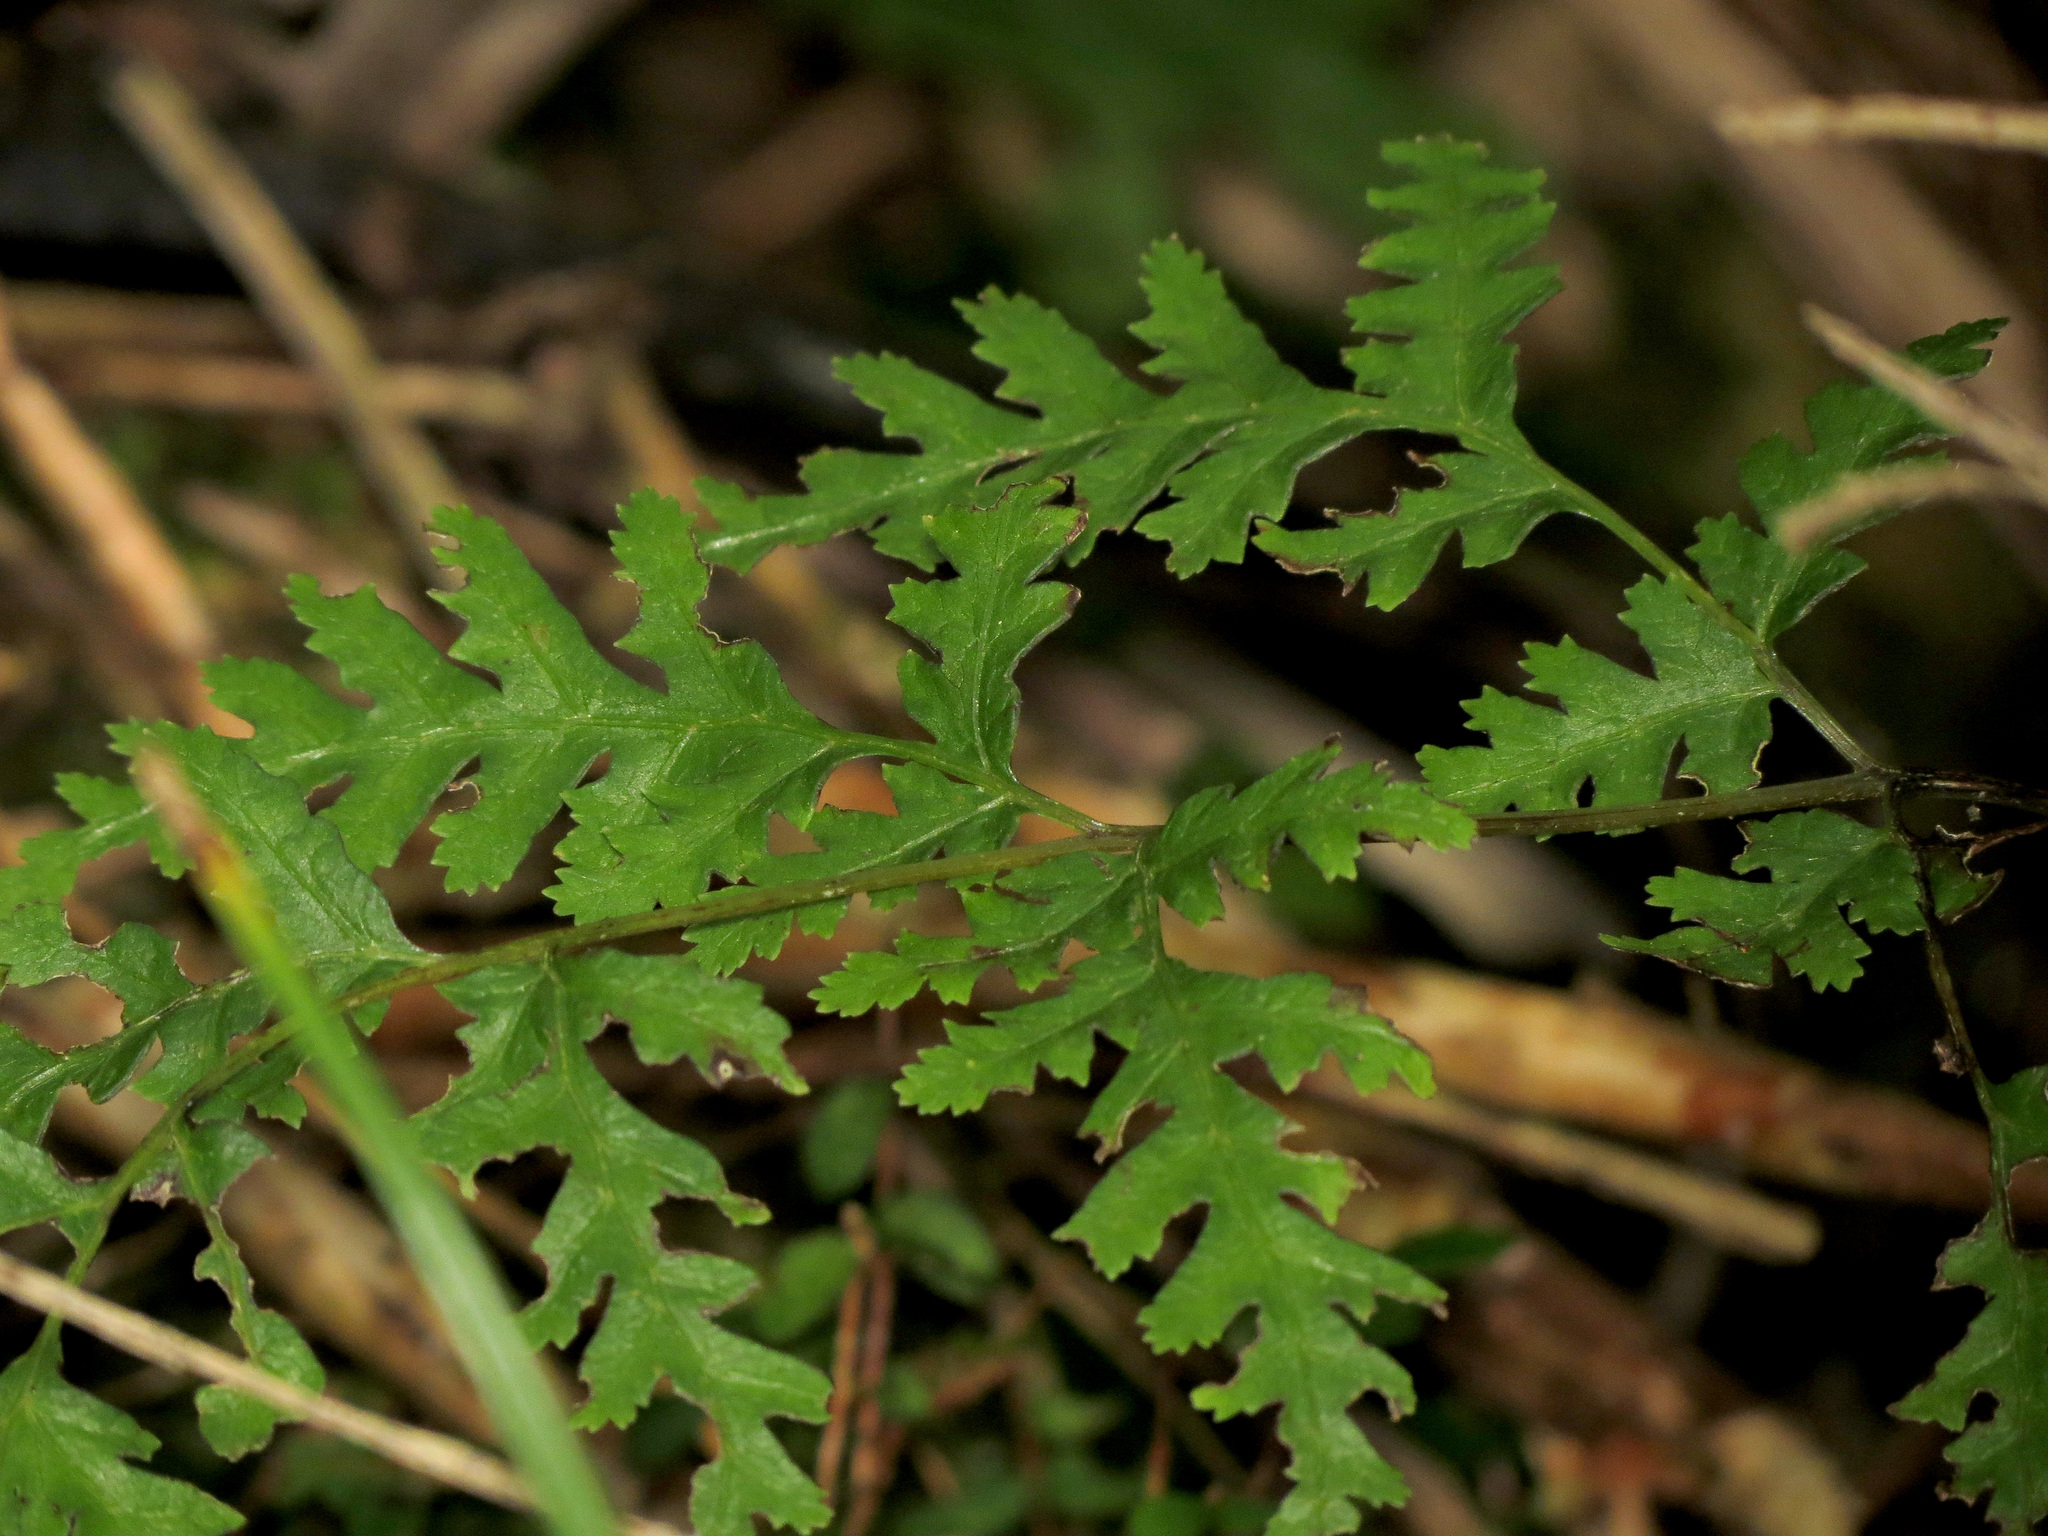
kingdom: Plantae
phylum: Tracheophyta
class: Polypodiopsida
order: Polypodiales
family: Pteridaceae
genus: Pteris
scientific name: Pteris macilenta
